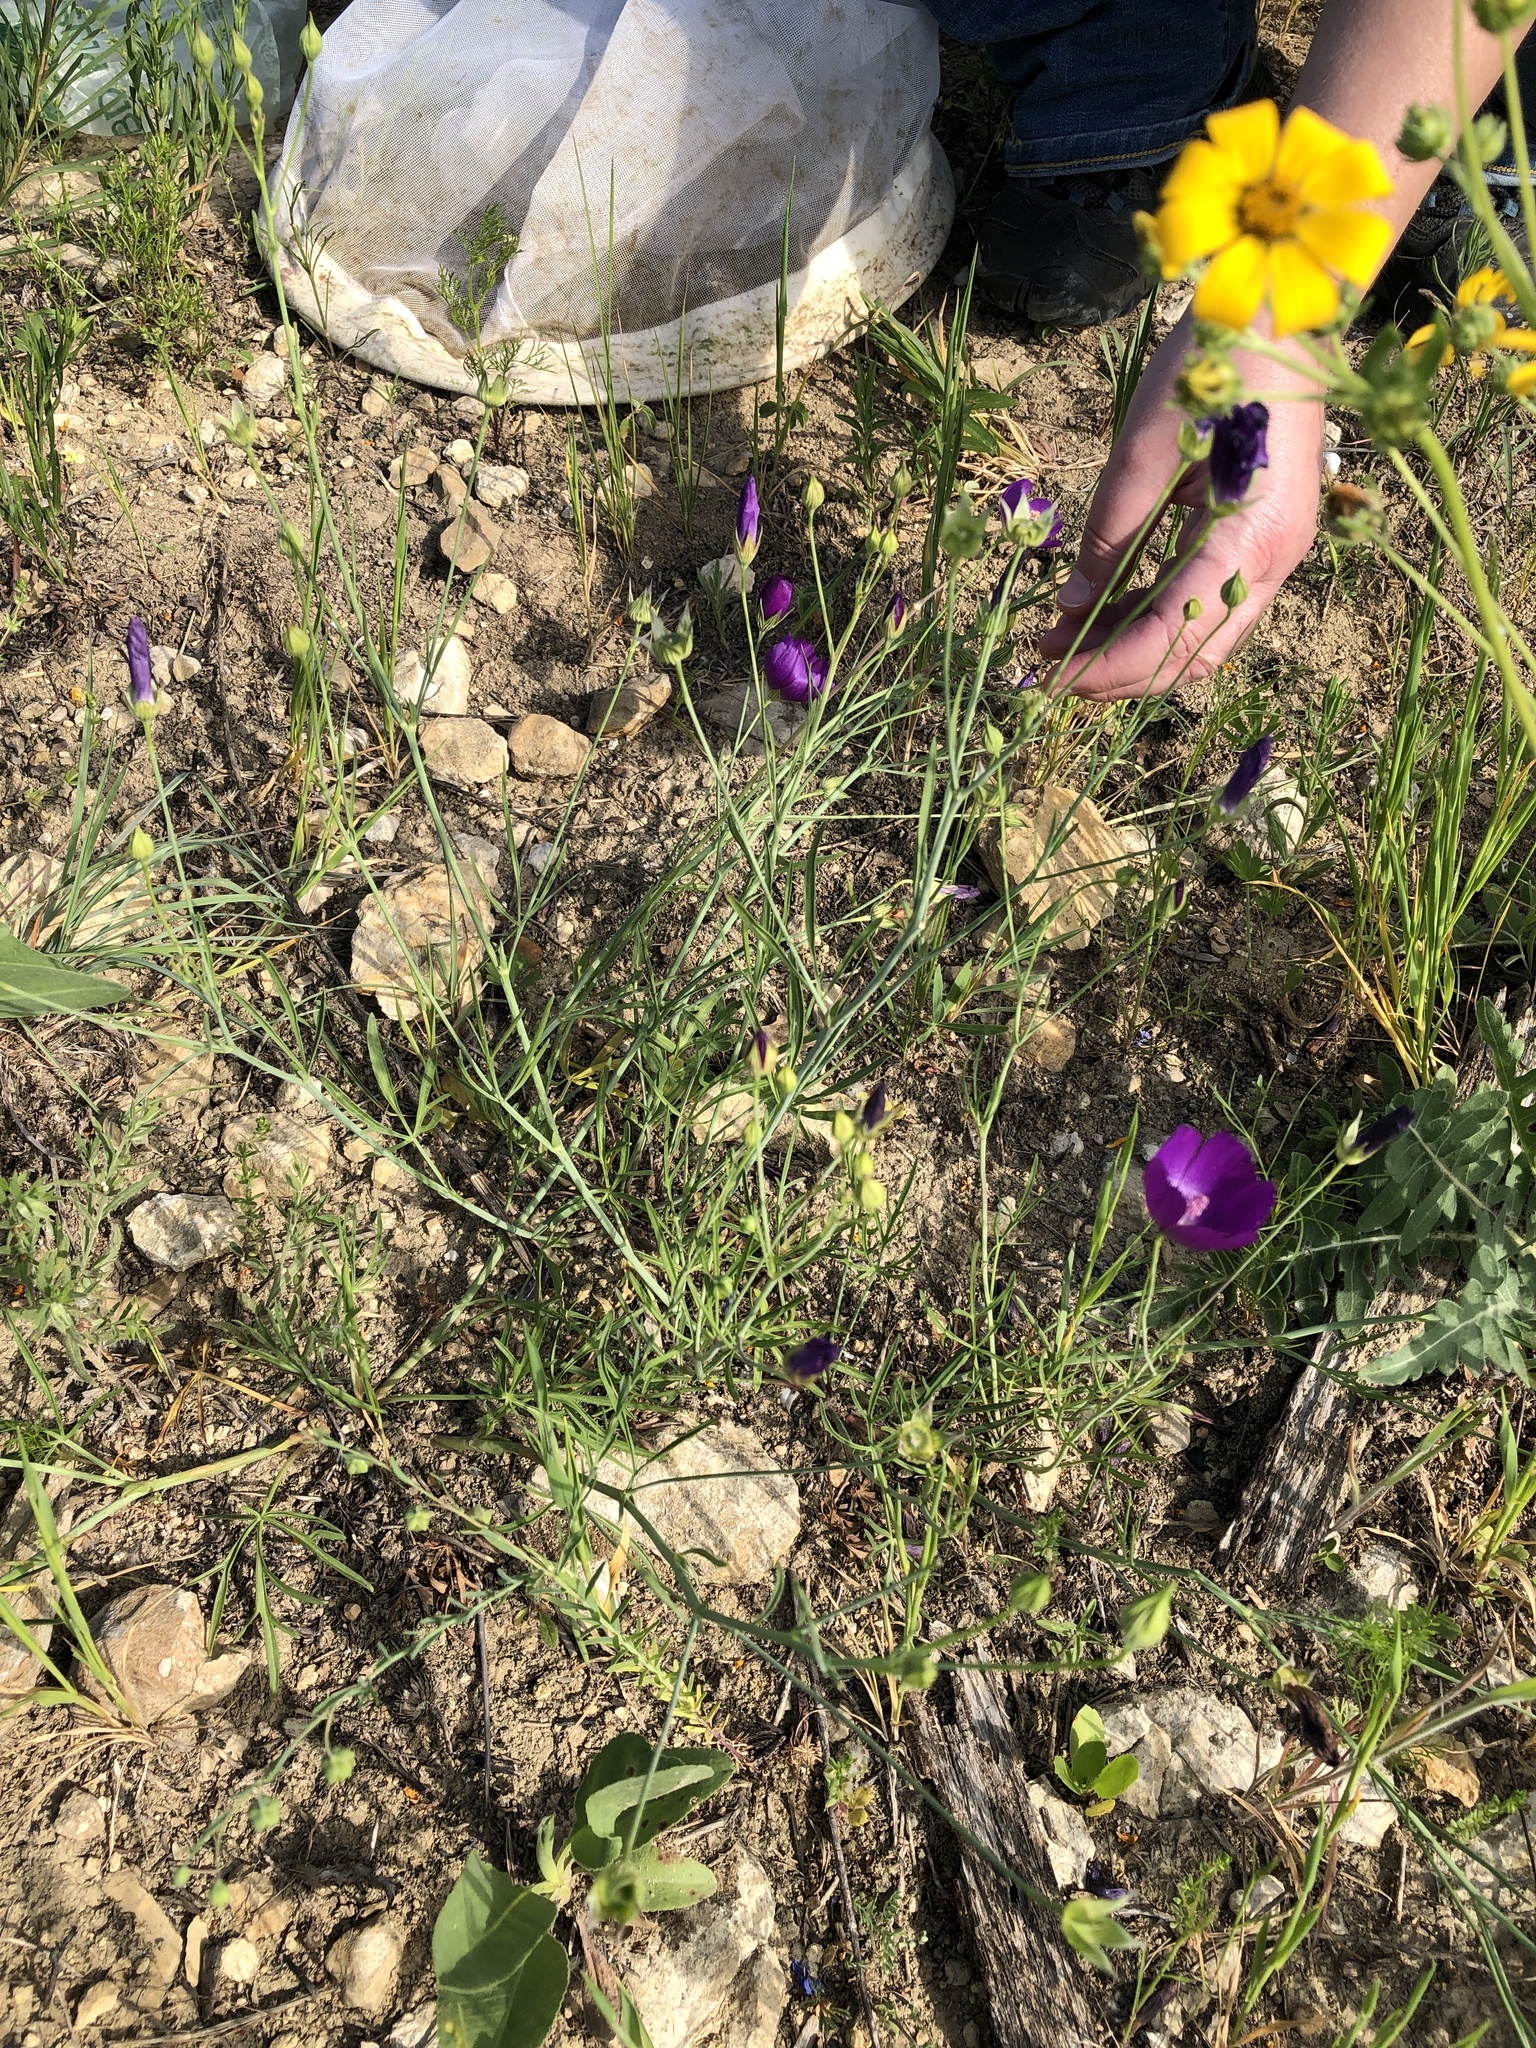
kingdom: Plantae
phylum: Tracheophyta
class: Magnoliopsida
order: Malvales
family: Malvaceae
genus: Callirhoe
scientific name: Callirhoe pedata
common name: Finger poppy-mallow
